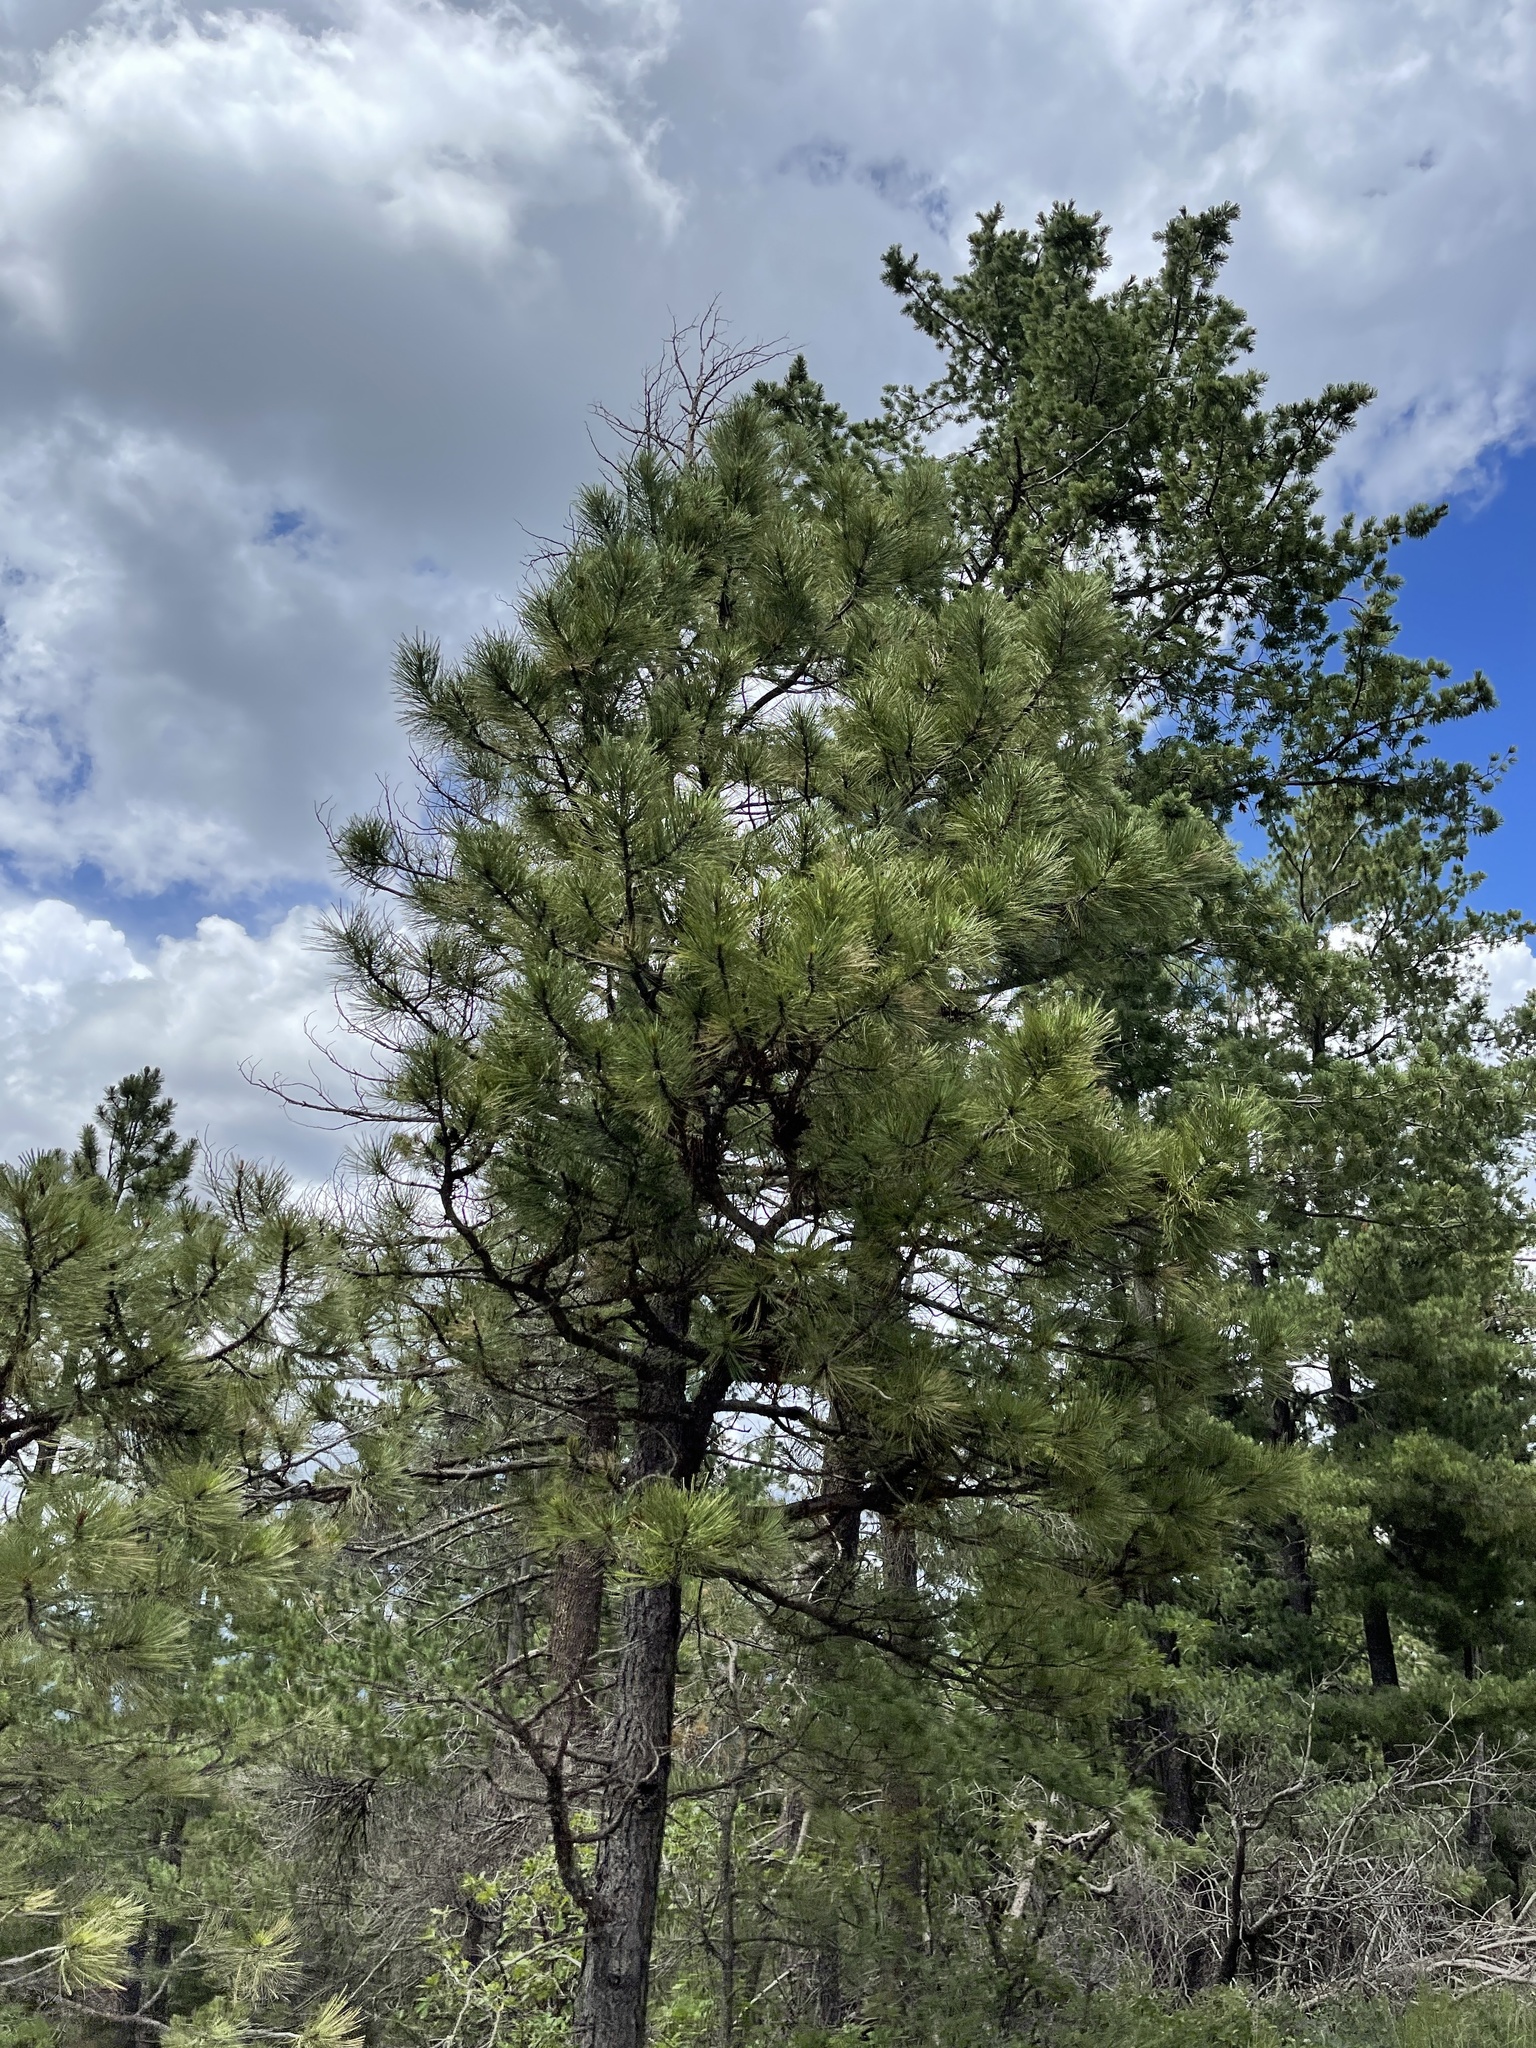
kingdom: Plantae
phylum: Tracheophyta
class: Pinopsida
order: Pinales
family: Pinaceae
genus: Pinus
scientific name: Pinus ponderosa
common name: Western yellow-pine
